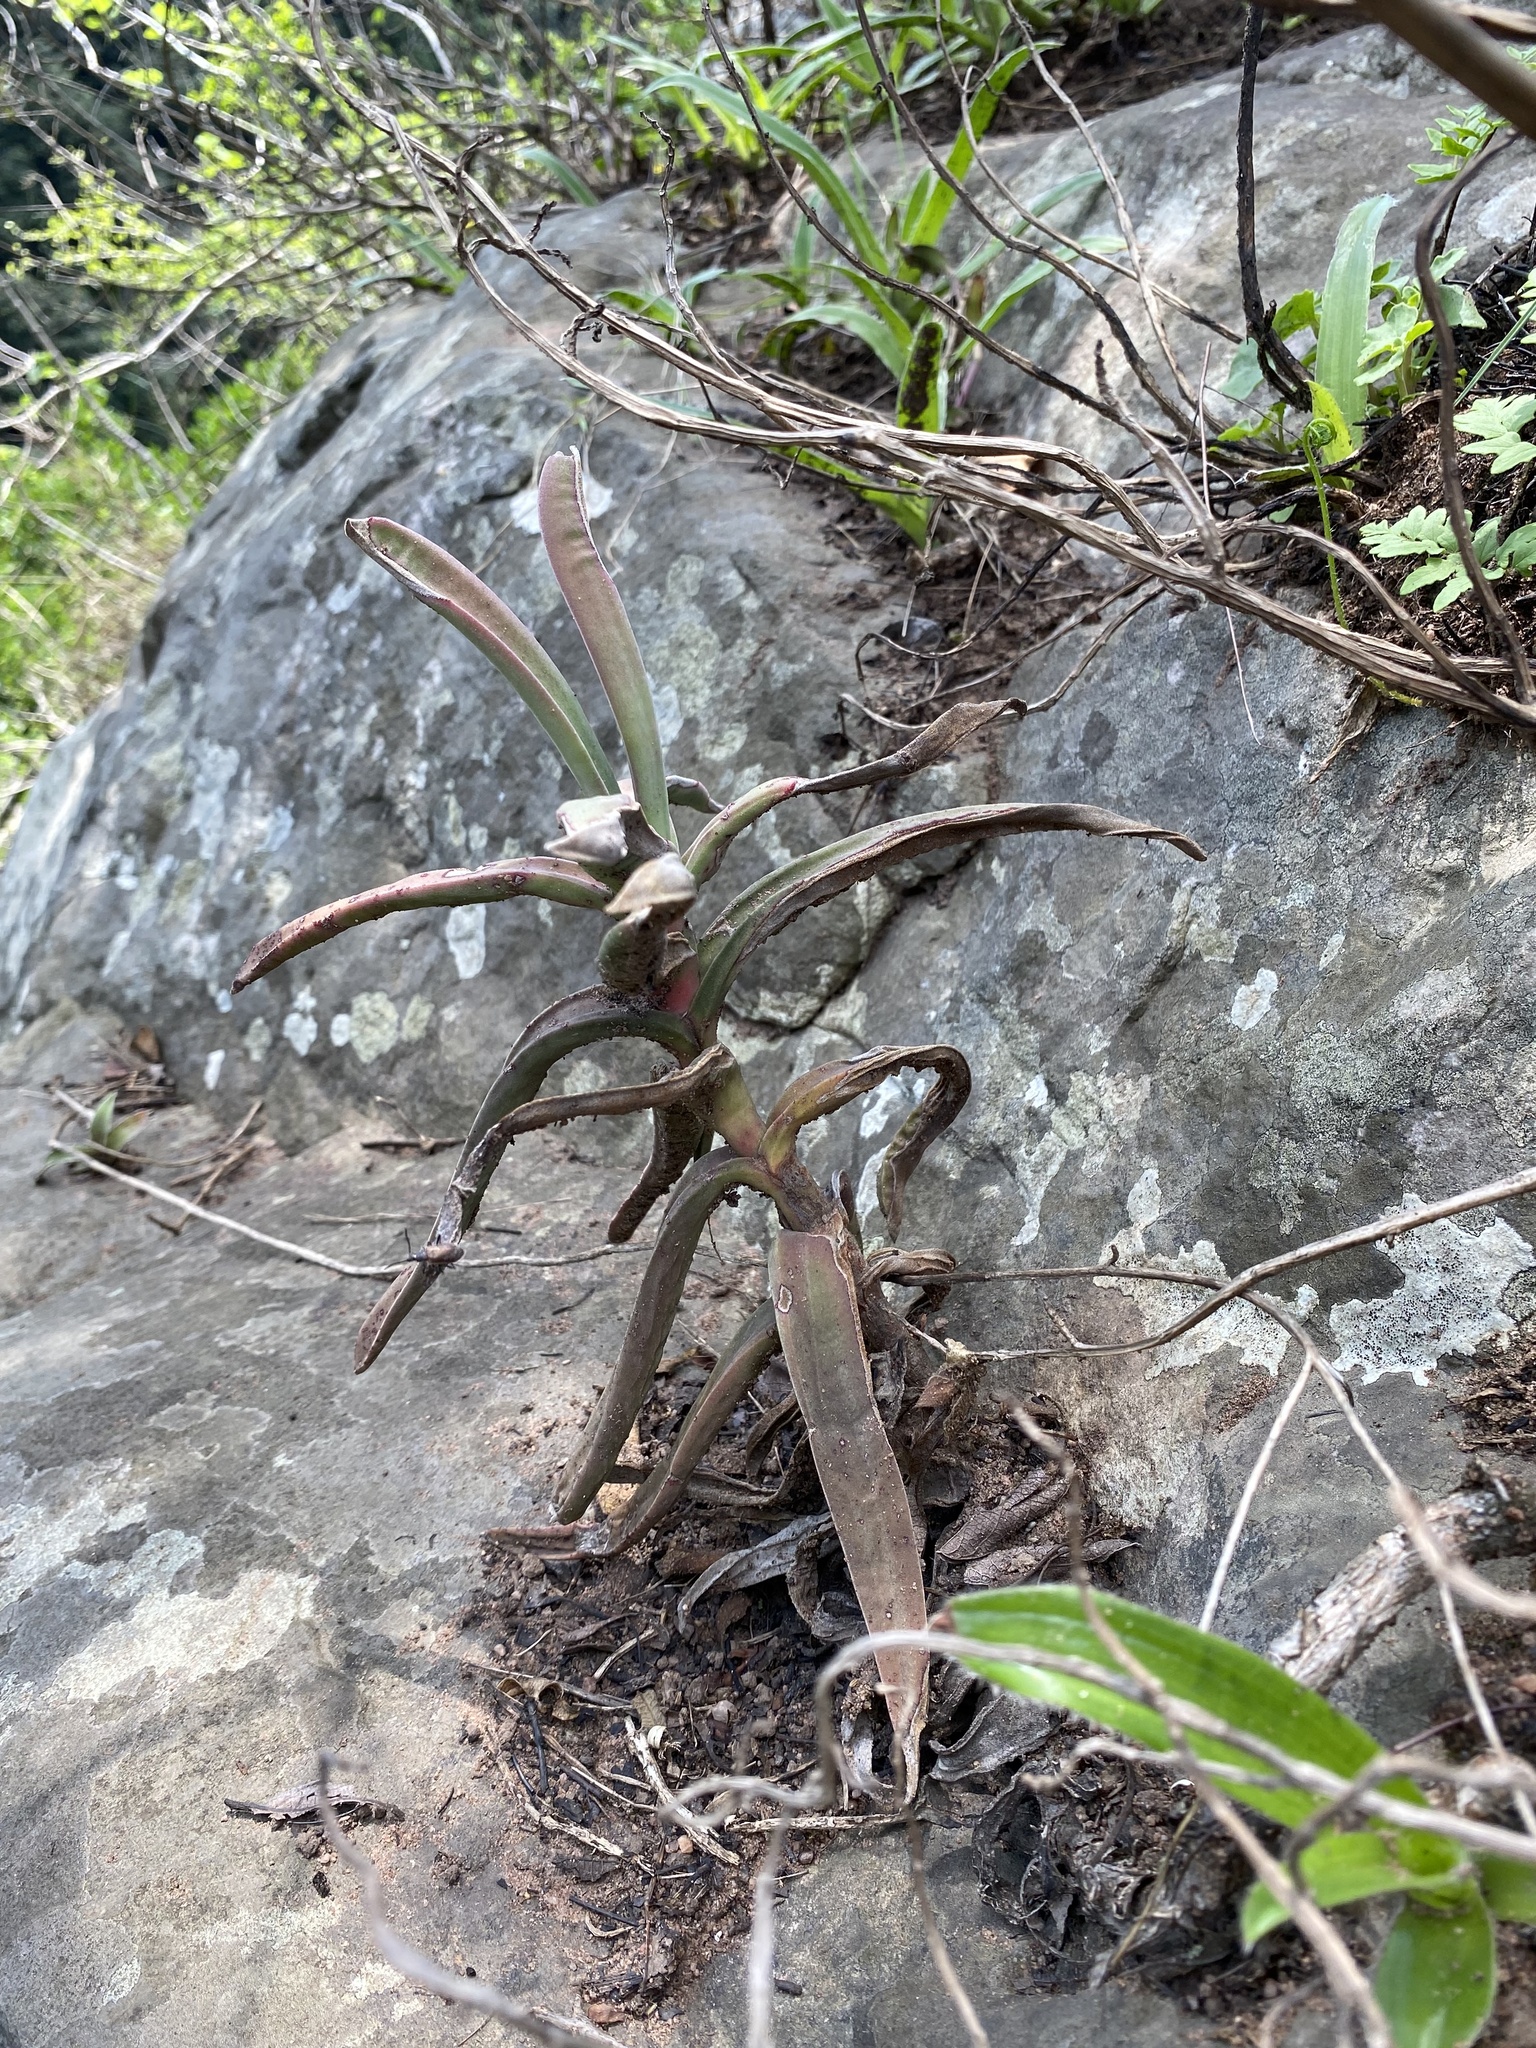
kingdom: Plantae
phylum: Tracheophyta
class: Magnoliopsida
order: Saxifragales
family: Crassulaceae
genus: Crassula
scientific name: Crassula perfoliata
